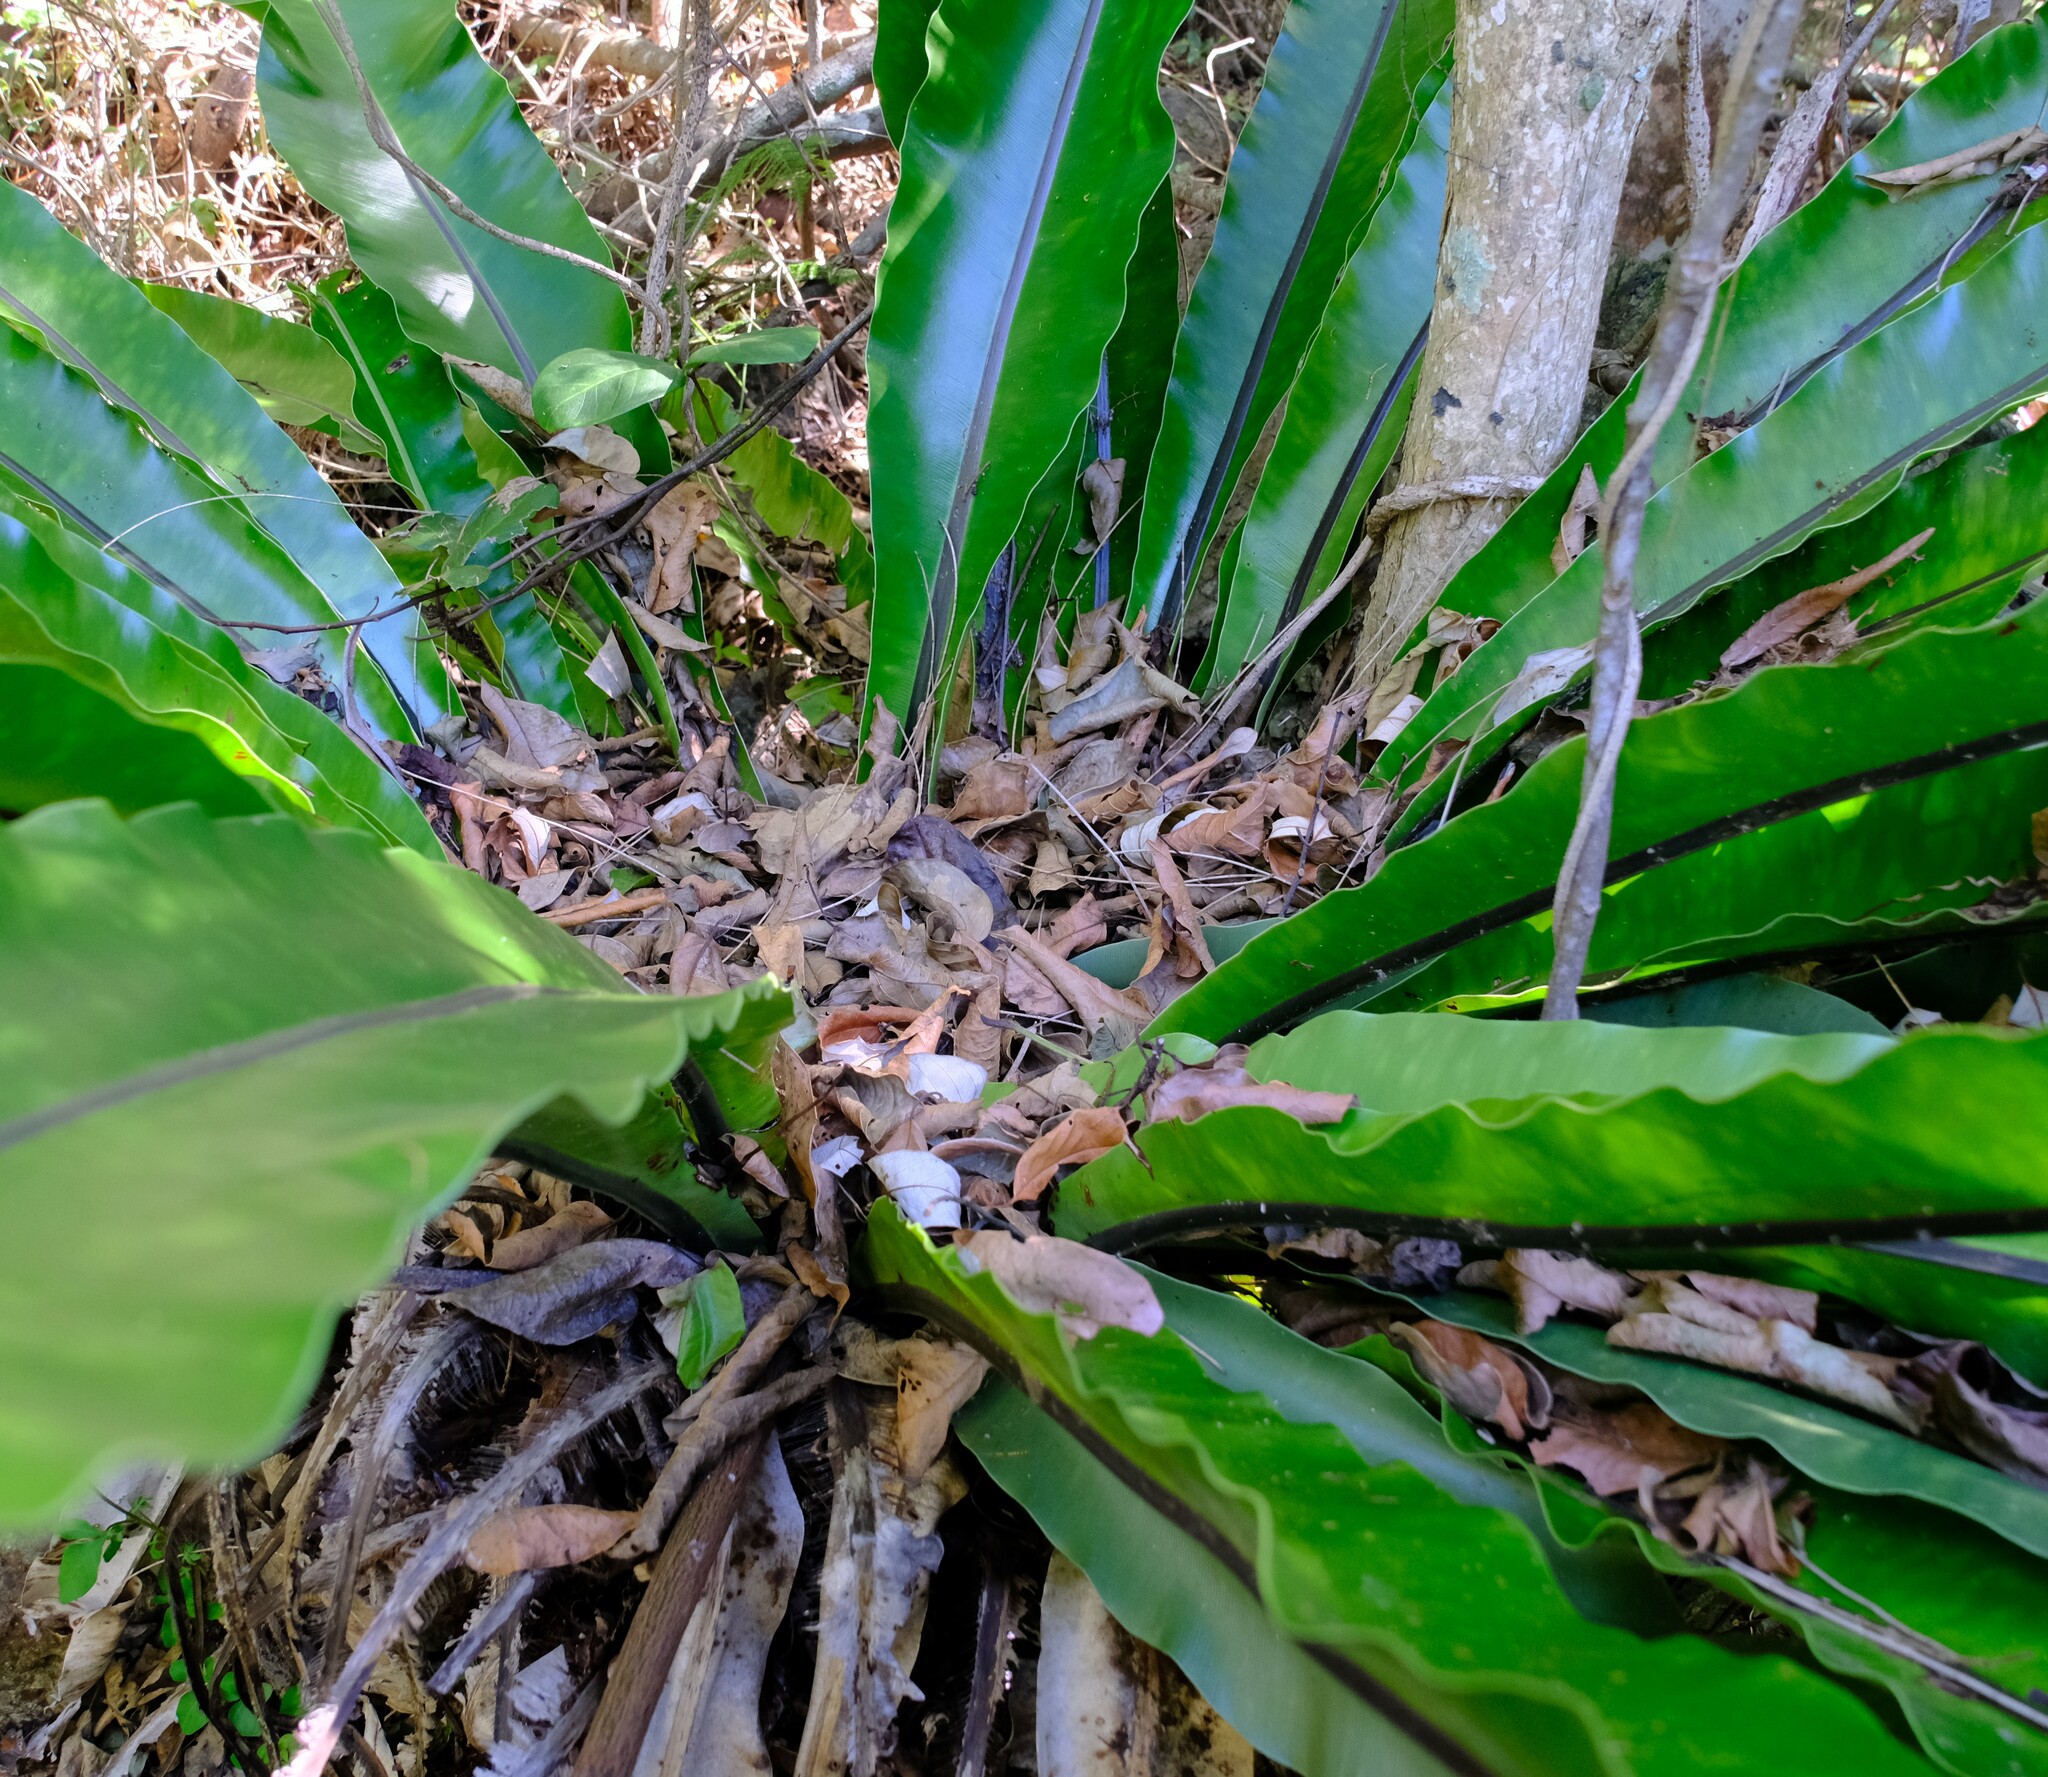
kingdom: Plantae
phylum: Tracheophyta
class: Polypodiopsida
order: Polypodiales
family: Aspleniaceae
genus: Asplenium
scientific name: Asplenium australasicum
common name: Bird's-nest fern
